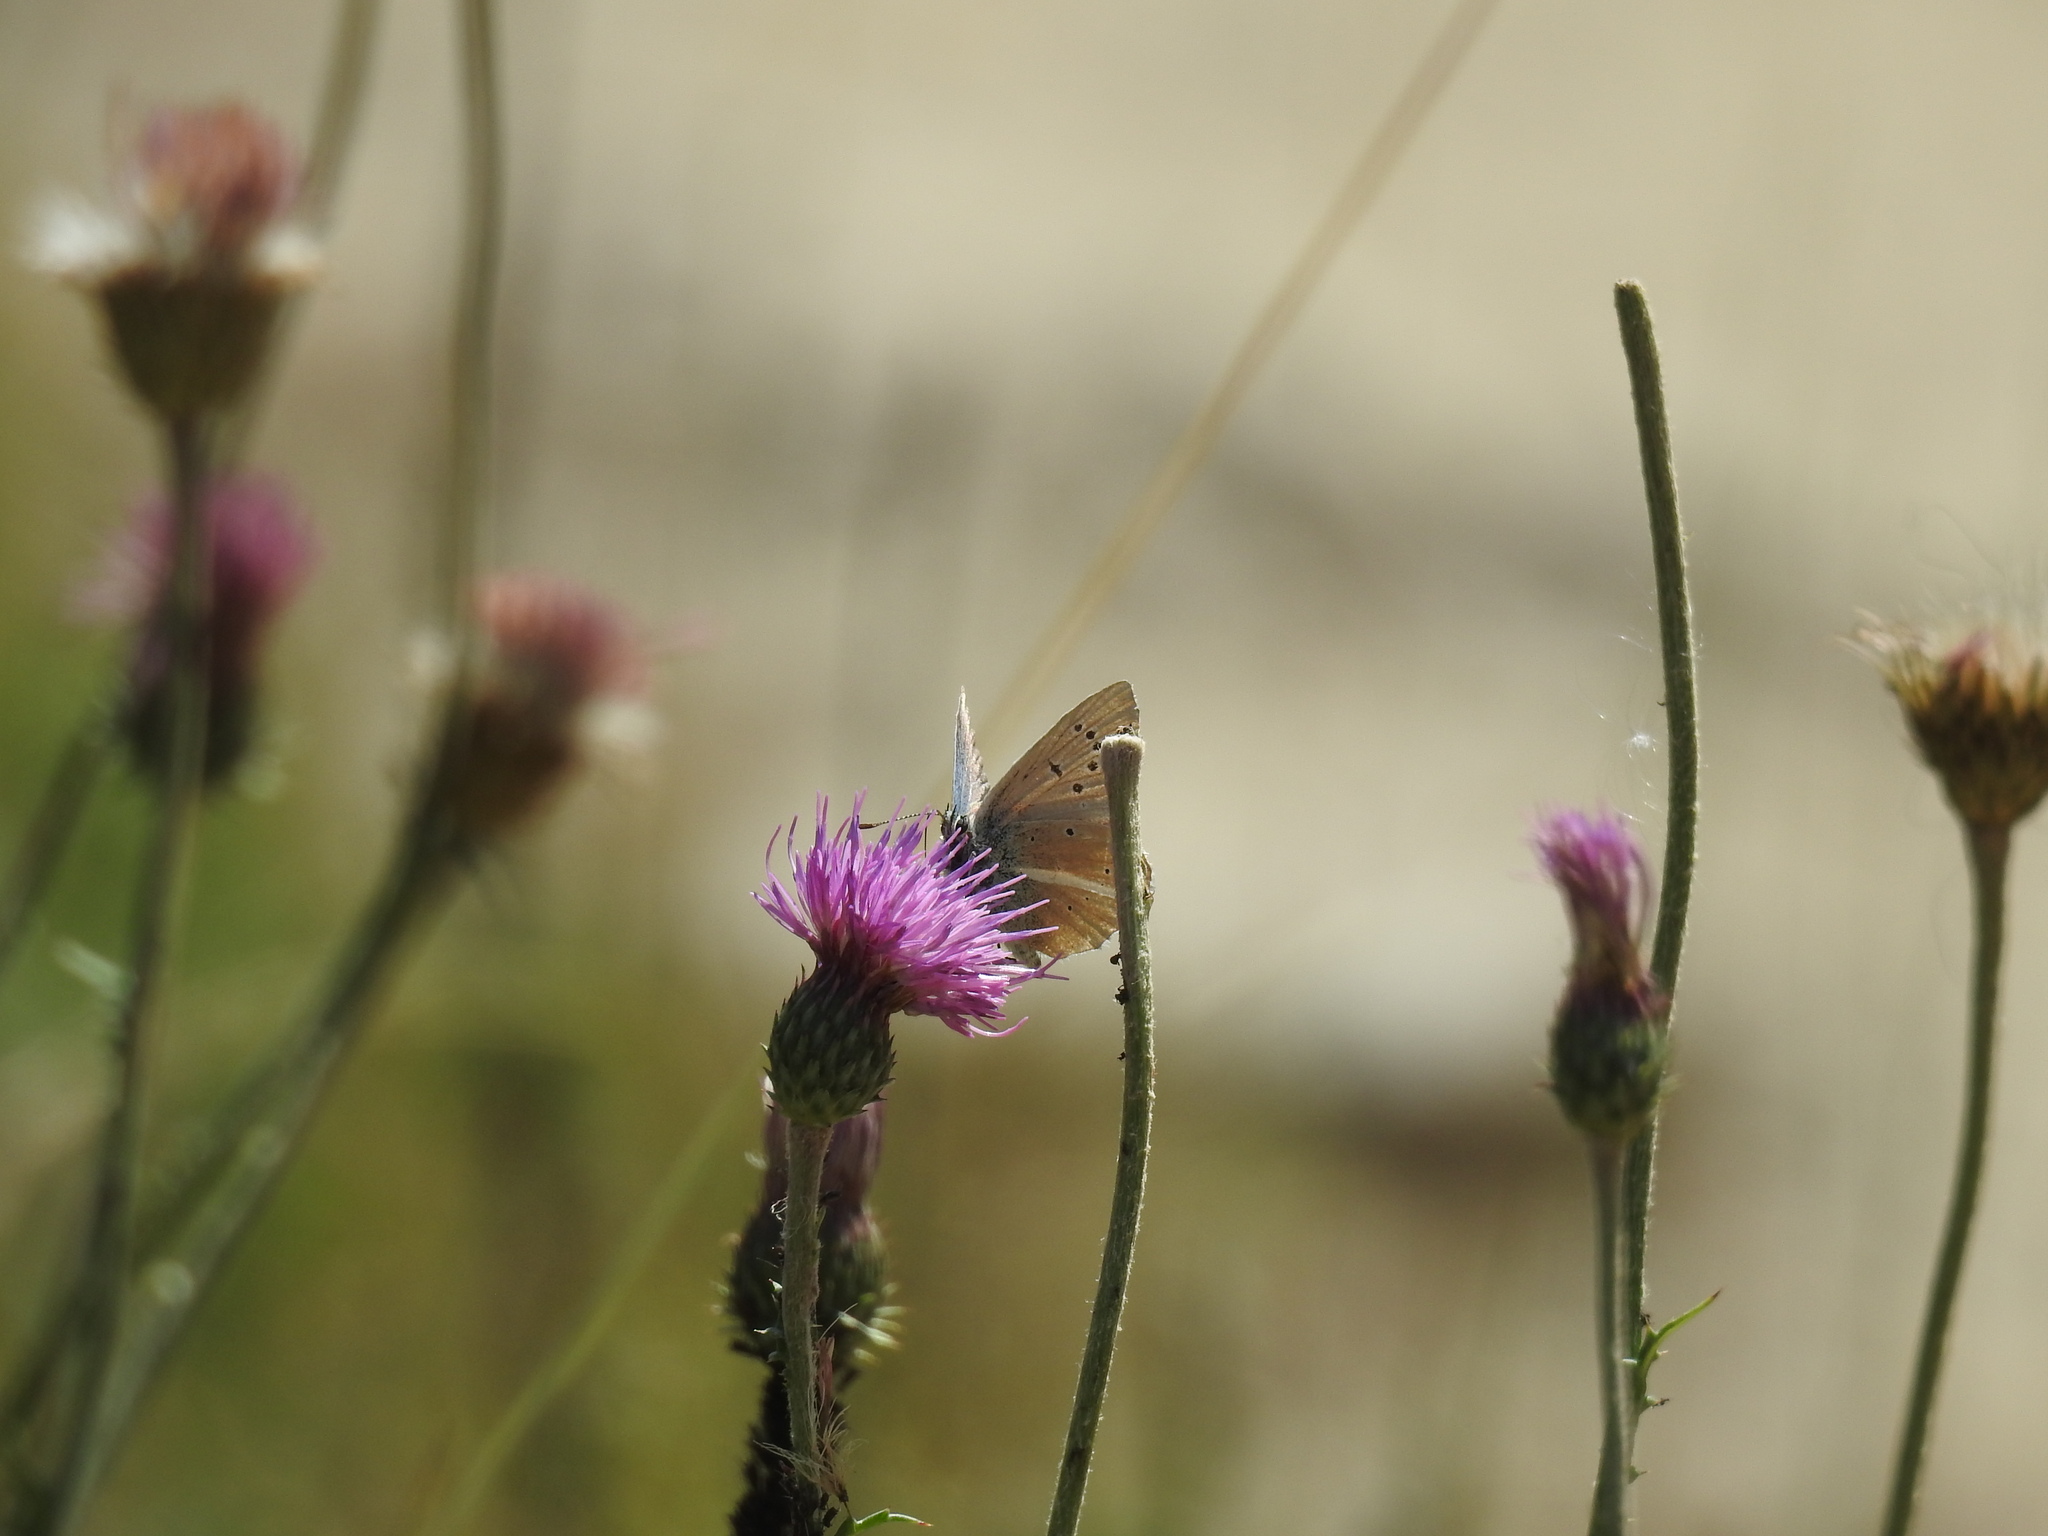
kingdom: Animalia
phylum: Arthropoda
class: Insecta
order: Lepidoptera
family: Lycaenidae
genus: Agrodiaetus
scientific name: Agrodiaetus damon
